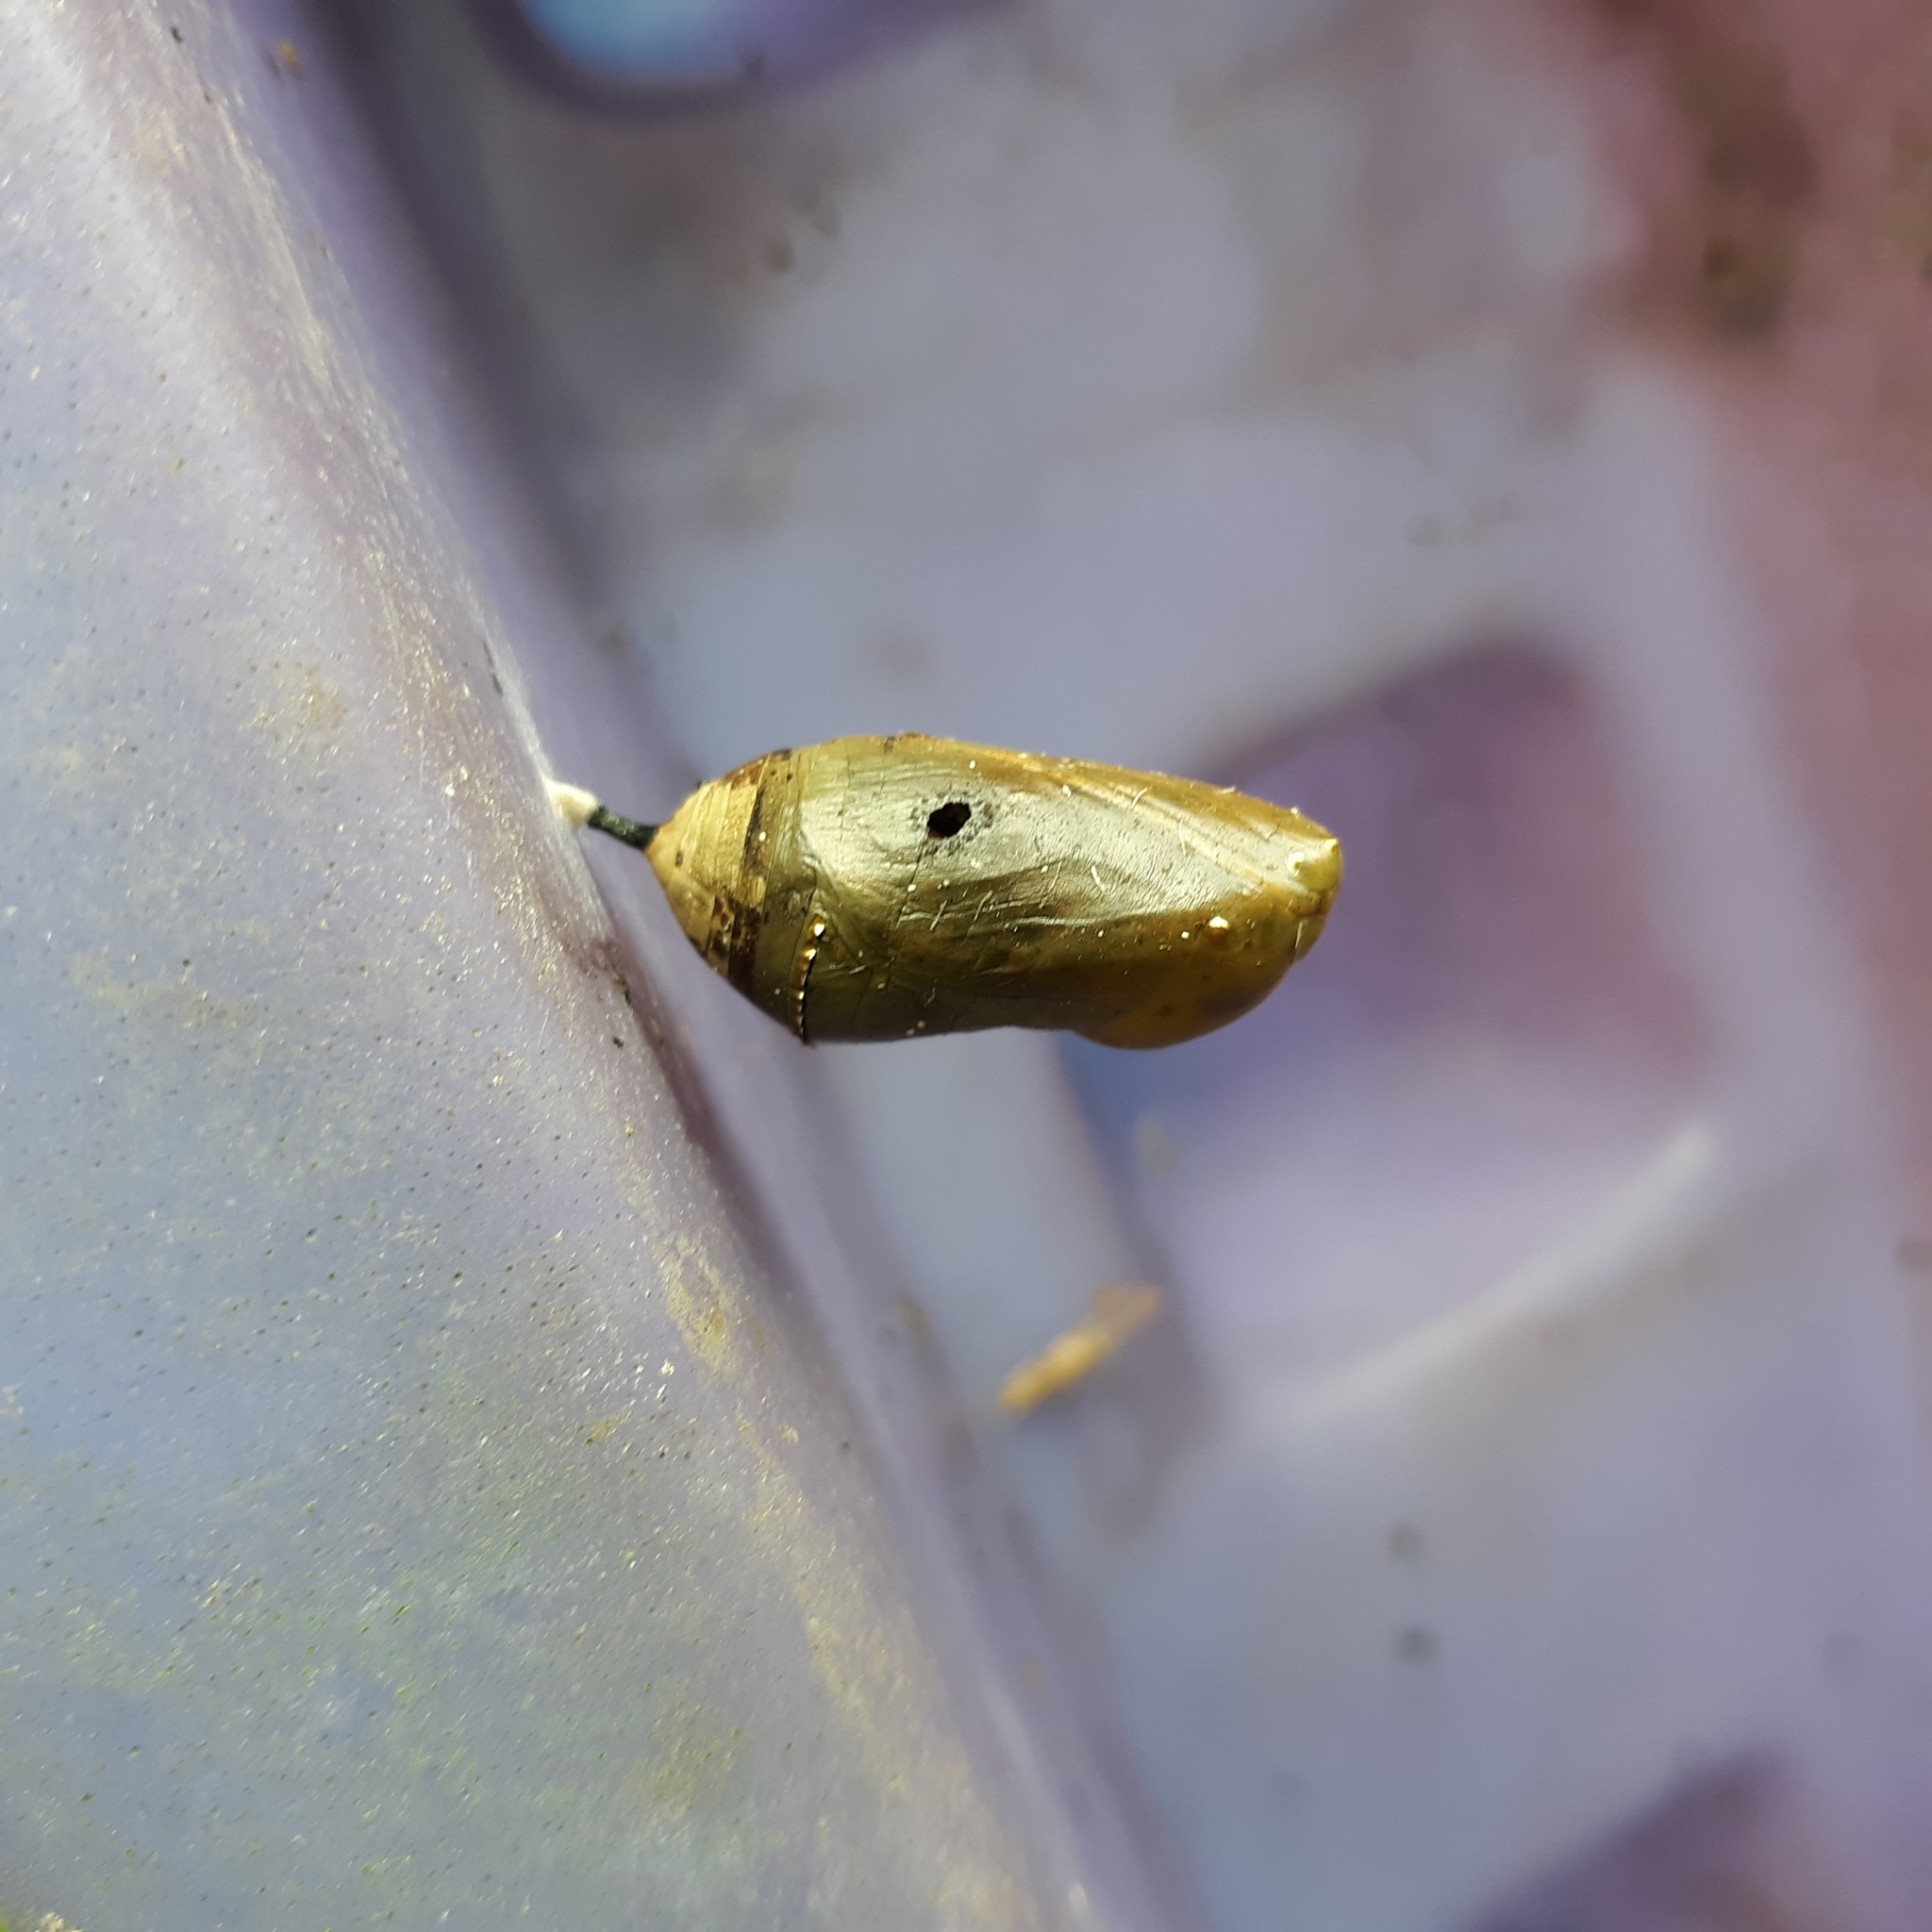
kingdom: Animalia
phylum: Arthropoda
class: Insecta
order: Lepidoptera
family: Nymphalidae
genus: Danaus
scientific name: Danaus plexippus
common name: Monarch
